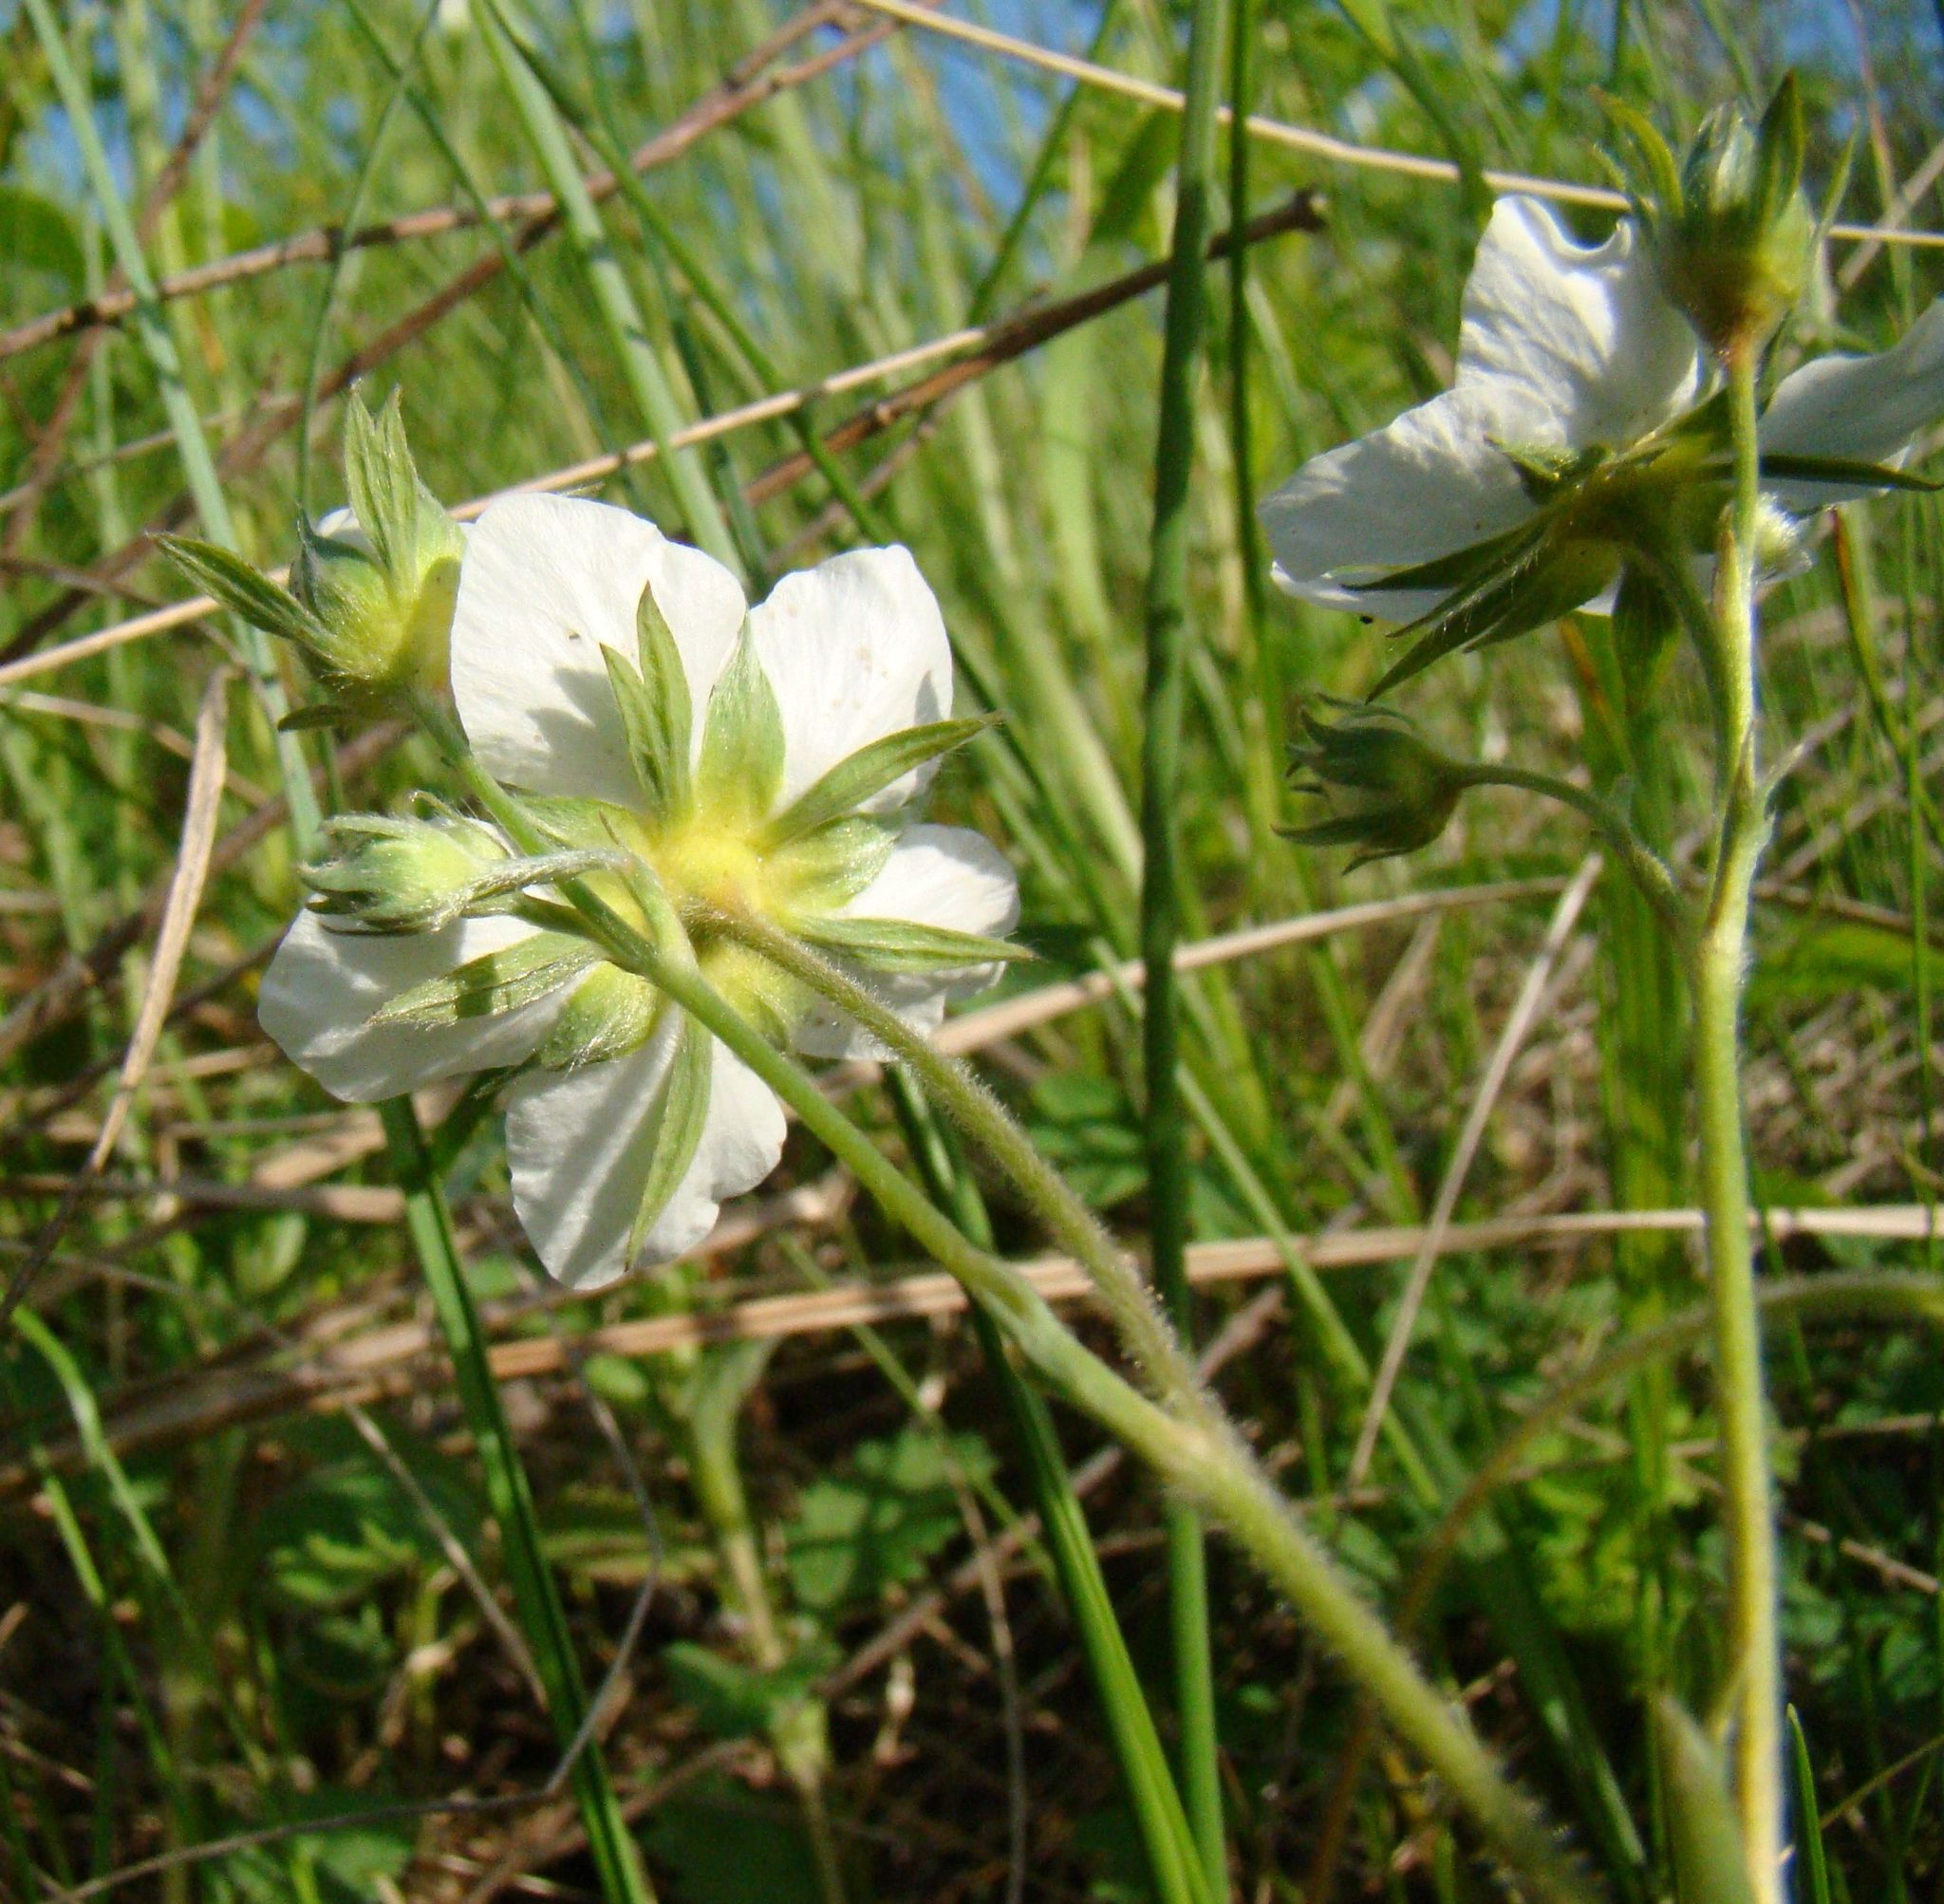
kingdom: Plantae
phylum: Tracheophyta
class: Magnoliopsida
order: Rosales
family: Rosaceae
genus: Fragaria
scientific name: Fragaria viridis
